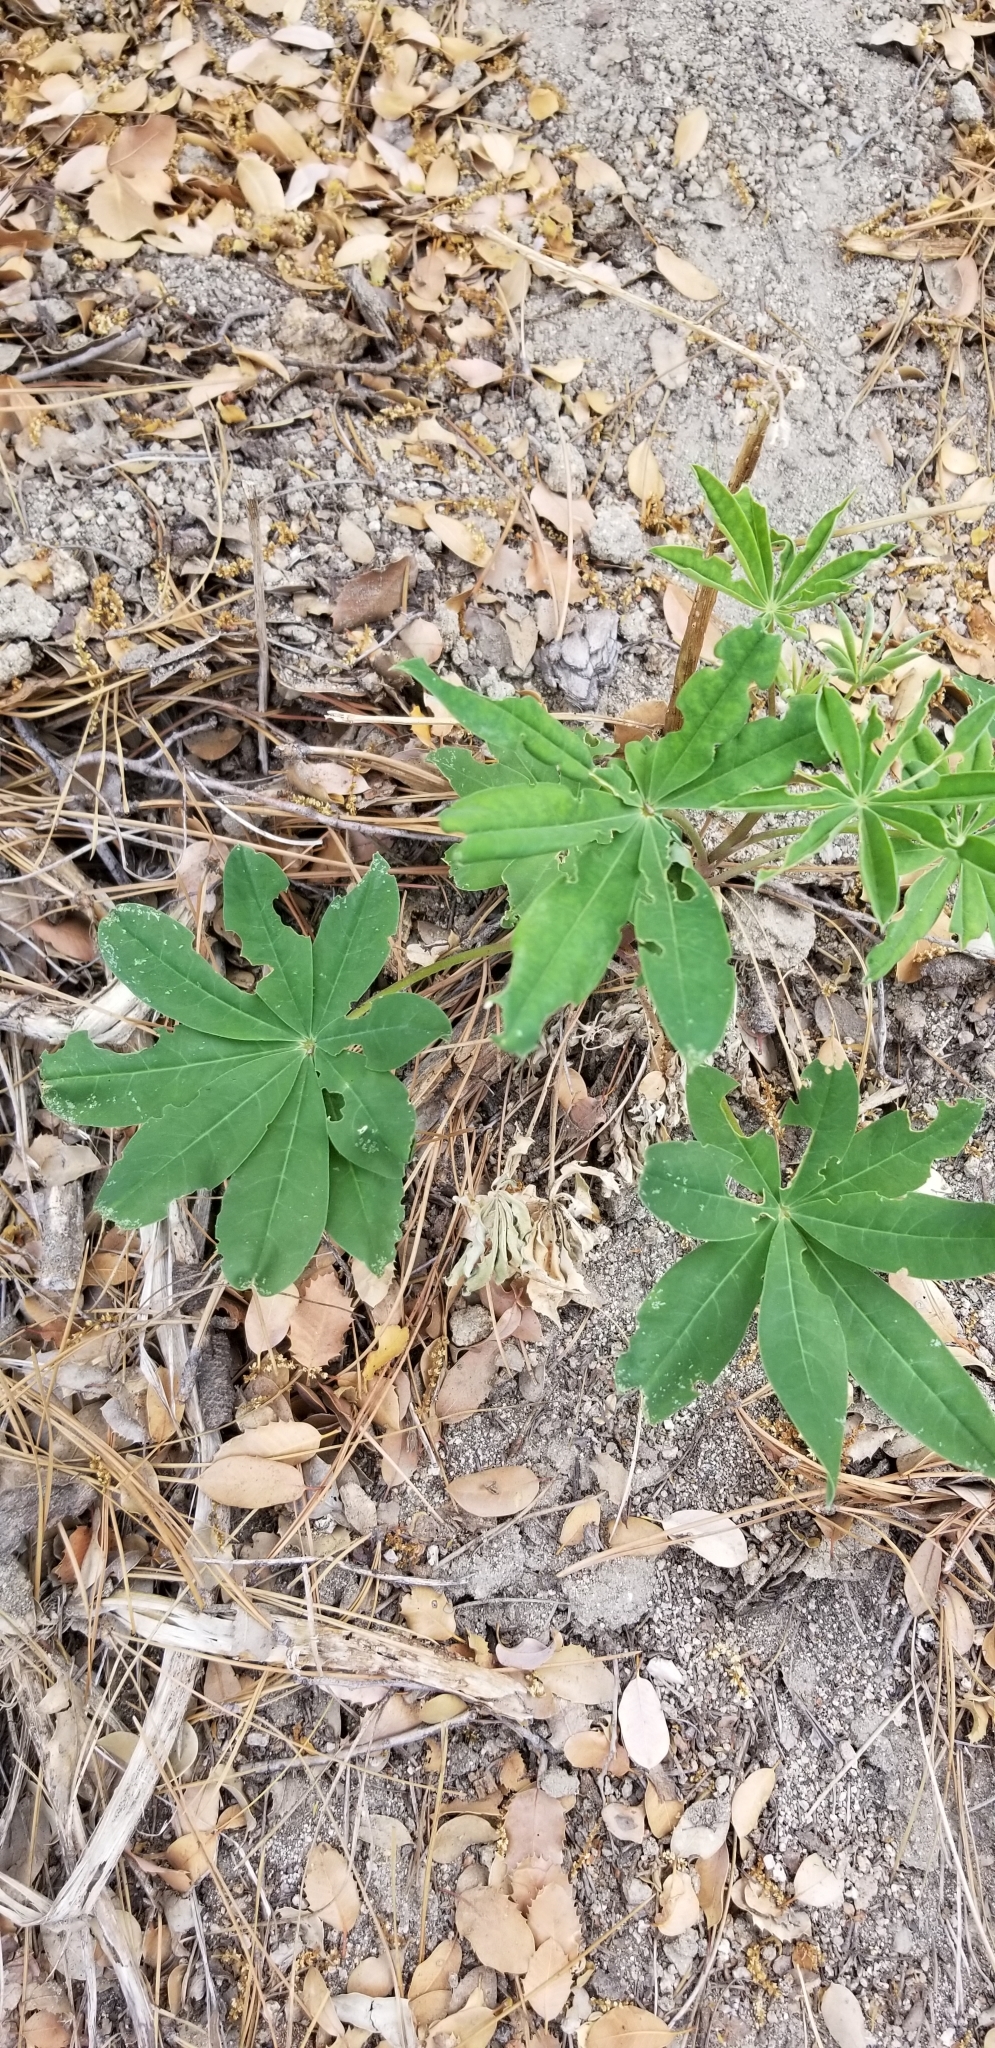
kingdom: Plantae
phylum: Tracheophyta
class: Magnoliopsida
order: Fabales
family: Fabaceae
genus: Lupinus
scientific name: Lupinus latifolius
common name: Broad-leaved lupine
